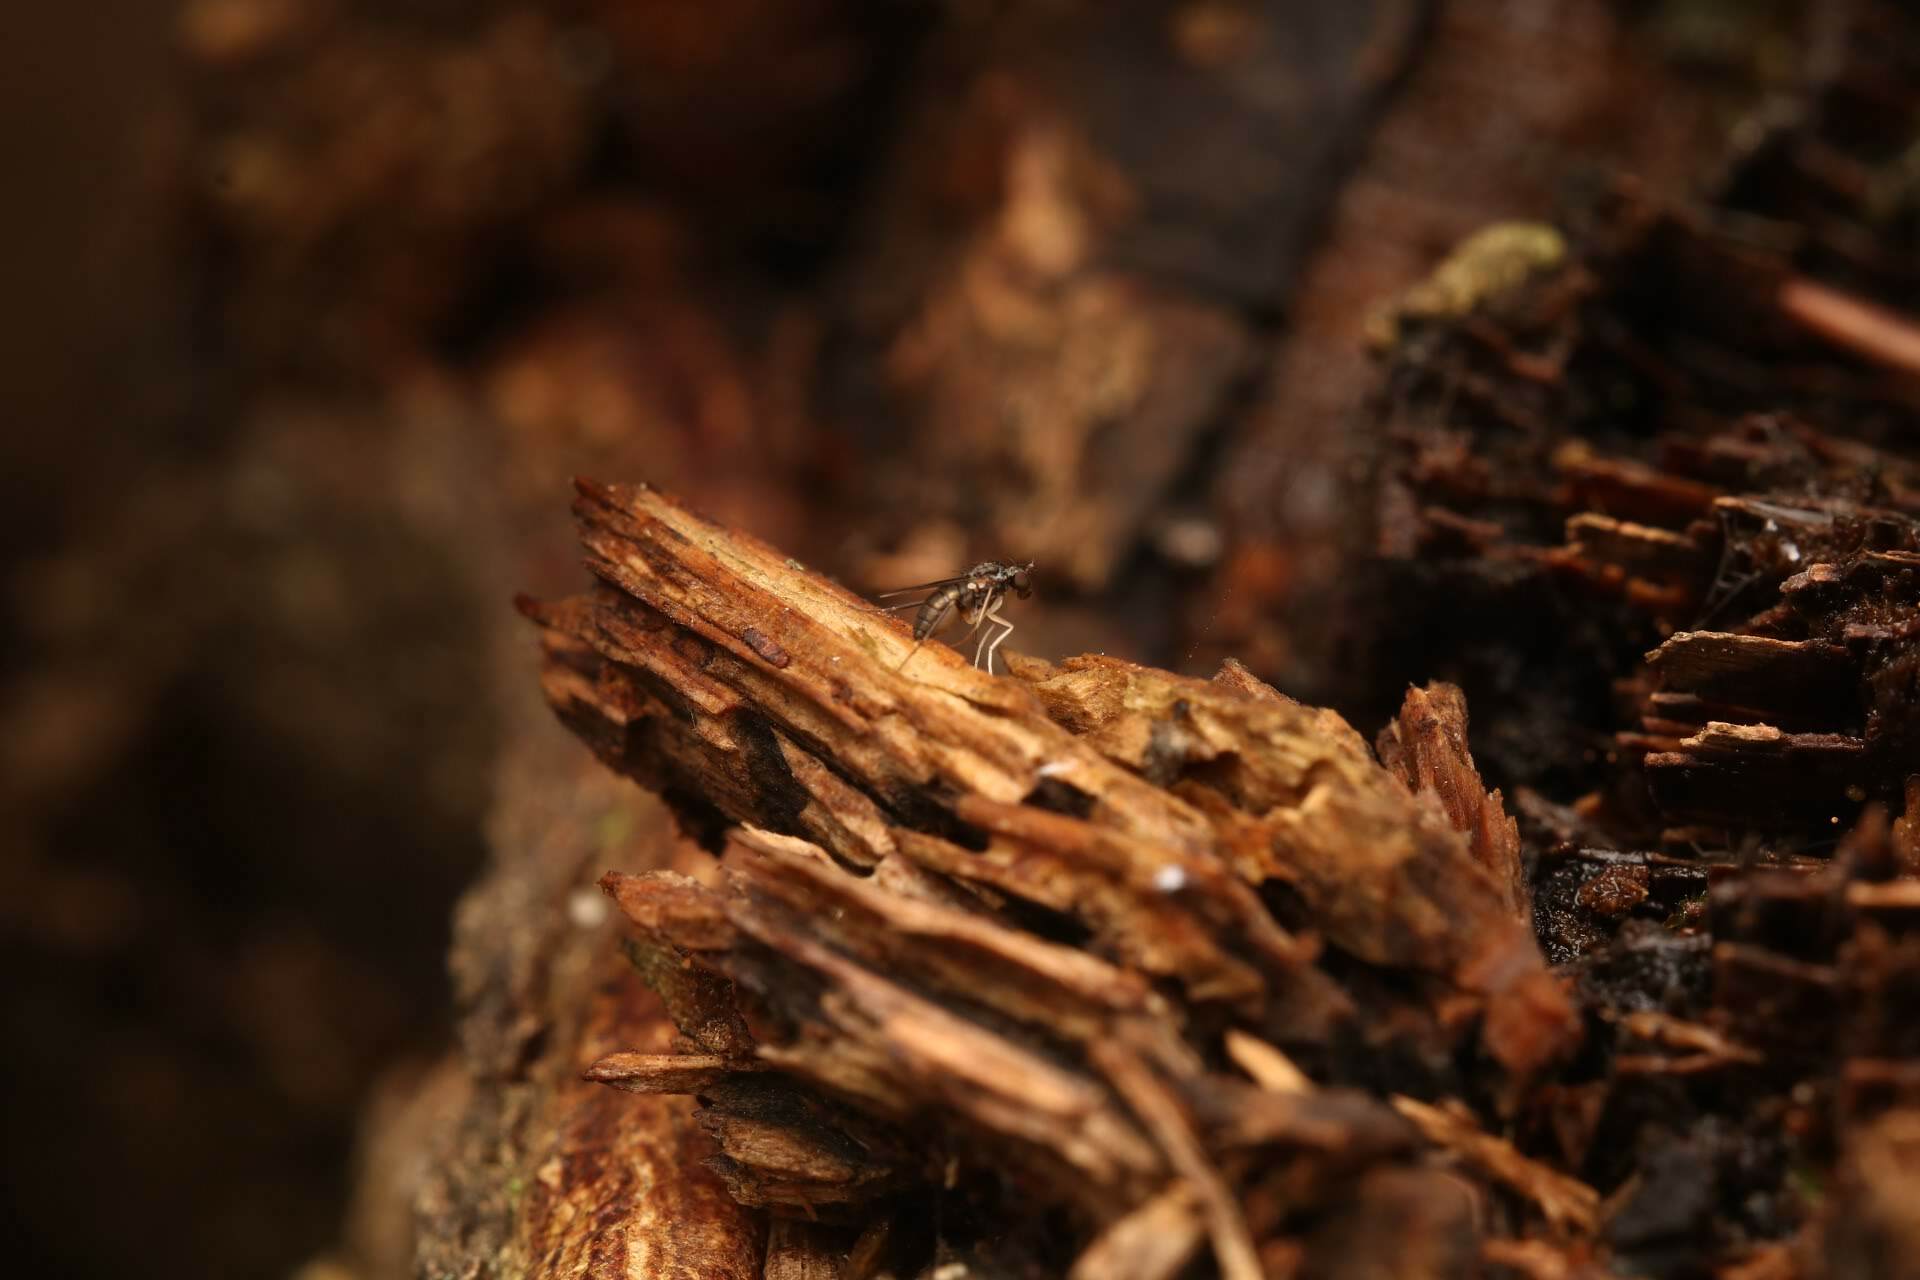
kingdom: Animalia
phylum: Arthropoda
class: Insecta
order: Diptera
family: Dolichopodidae
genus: Systenus
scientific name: Systenus albimanus
